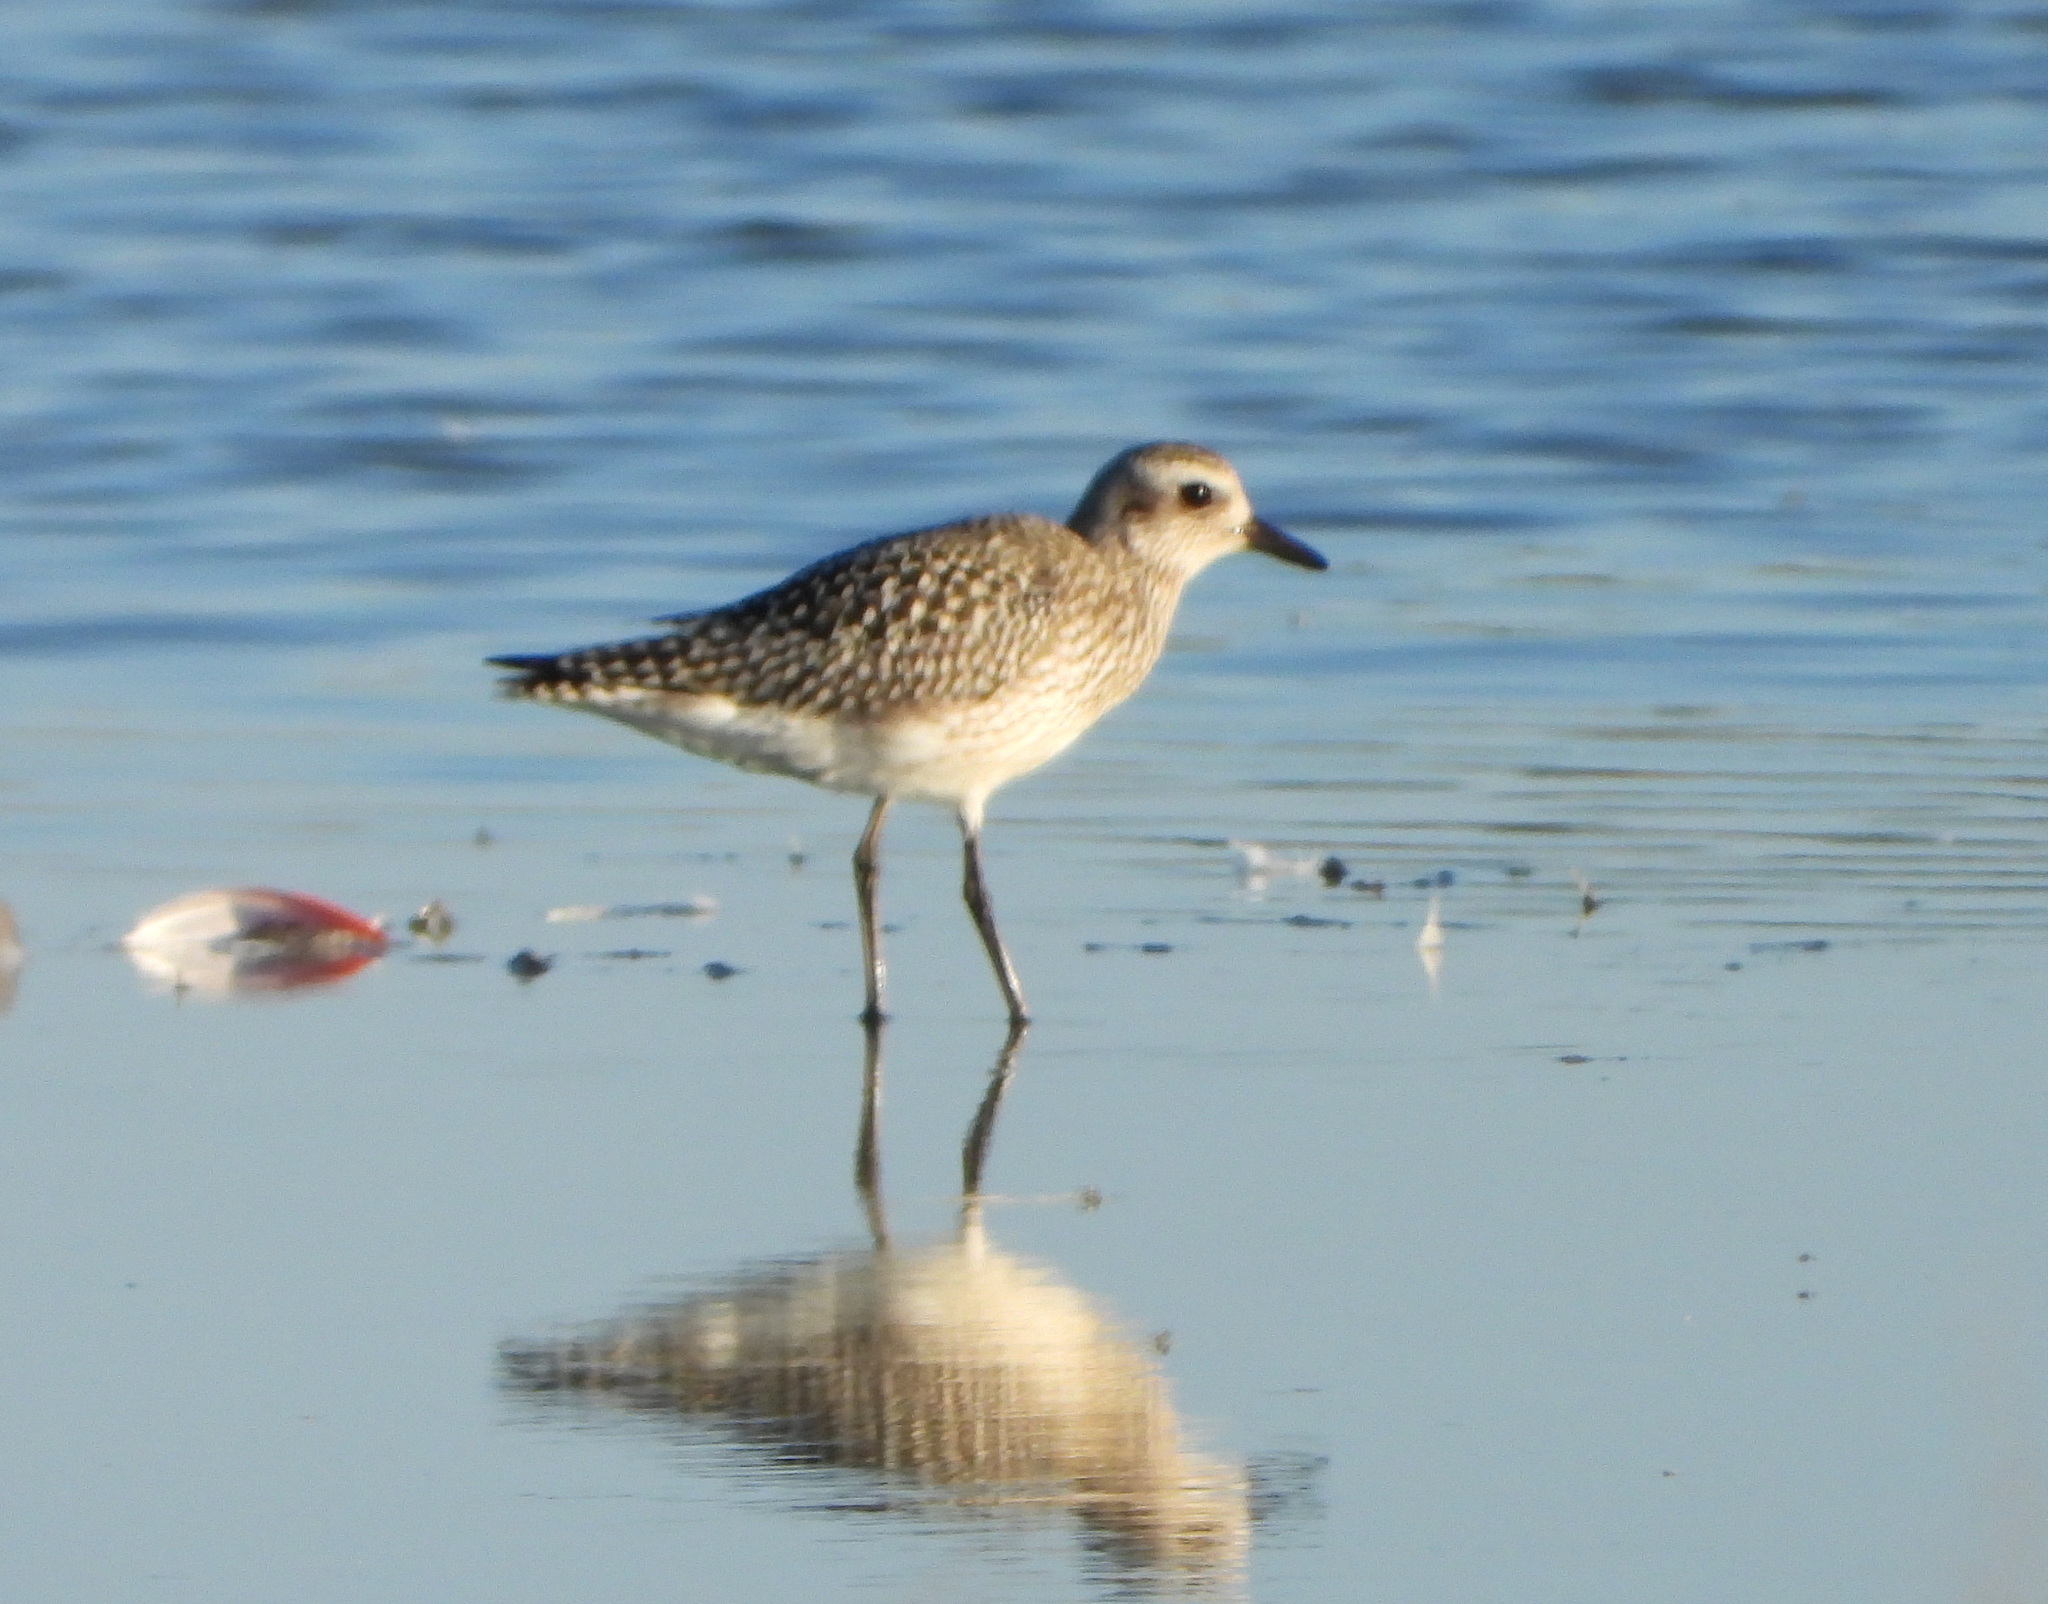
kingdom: Animalia
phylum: Chordata
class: Aves
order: Charadriiformes
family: Charadriidae
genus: Pluvialis
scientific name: Pluvialis squatarola
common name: Grey plover
